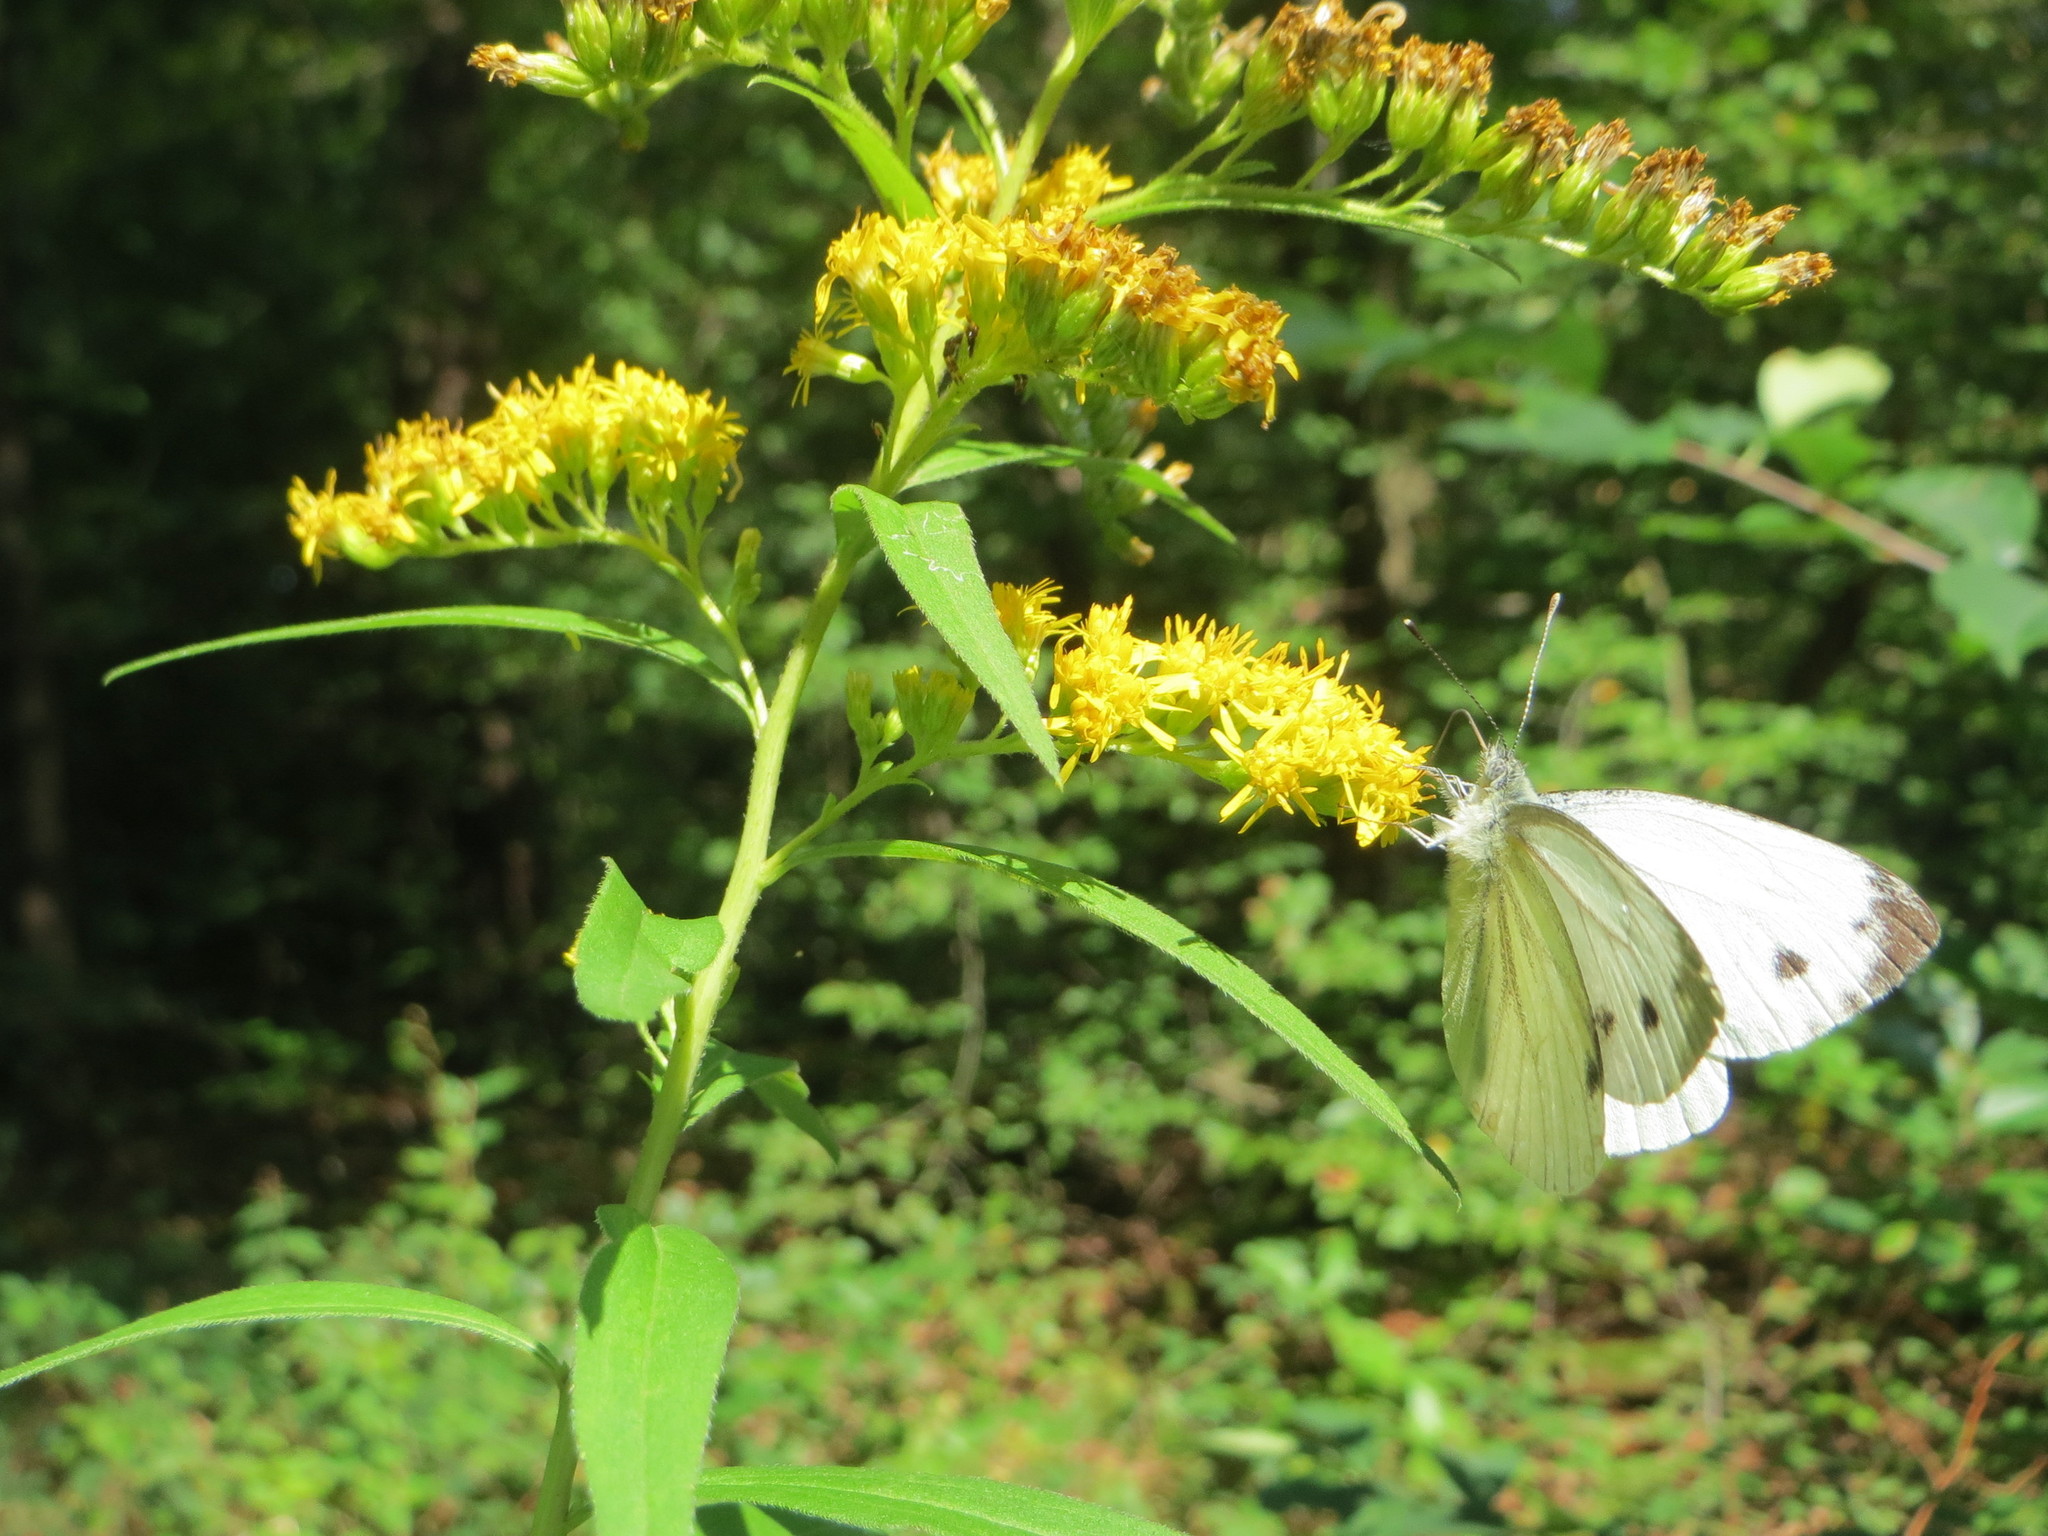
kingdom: Plantae
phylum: Tracheophyta
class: Magnoliopsida
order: Asterales
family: Asteraceae
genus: Solidago
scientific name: Solidago canadensis
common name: Canada goldenrod
